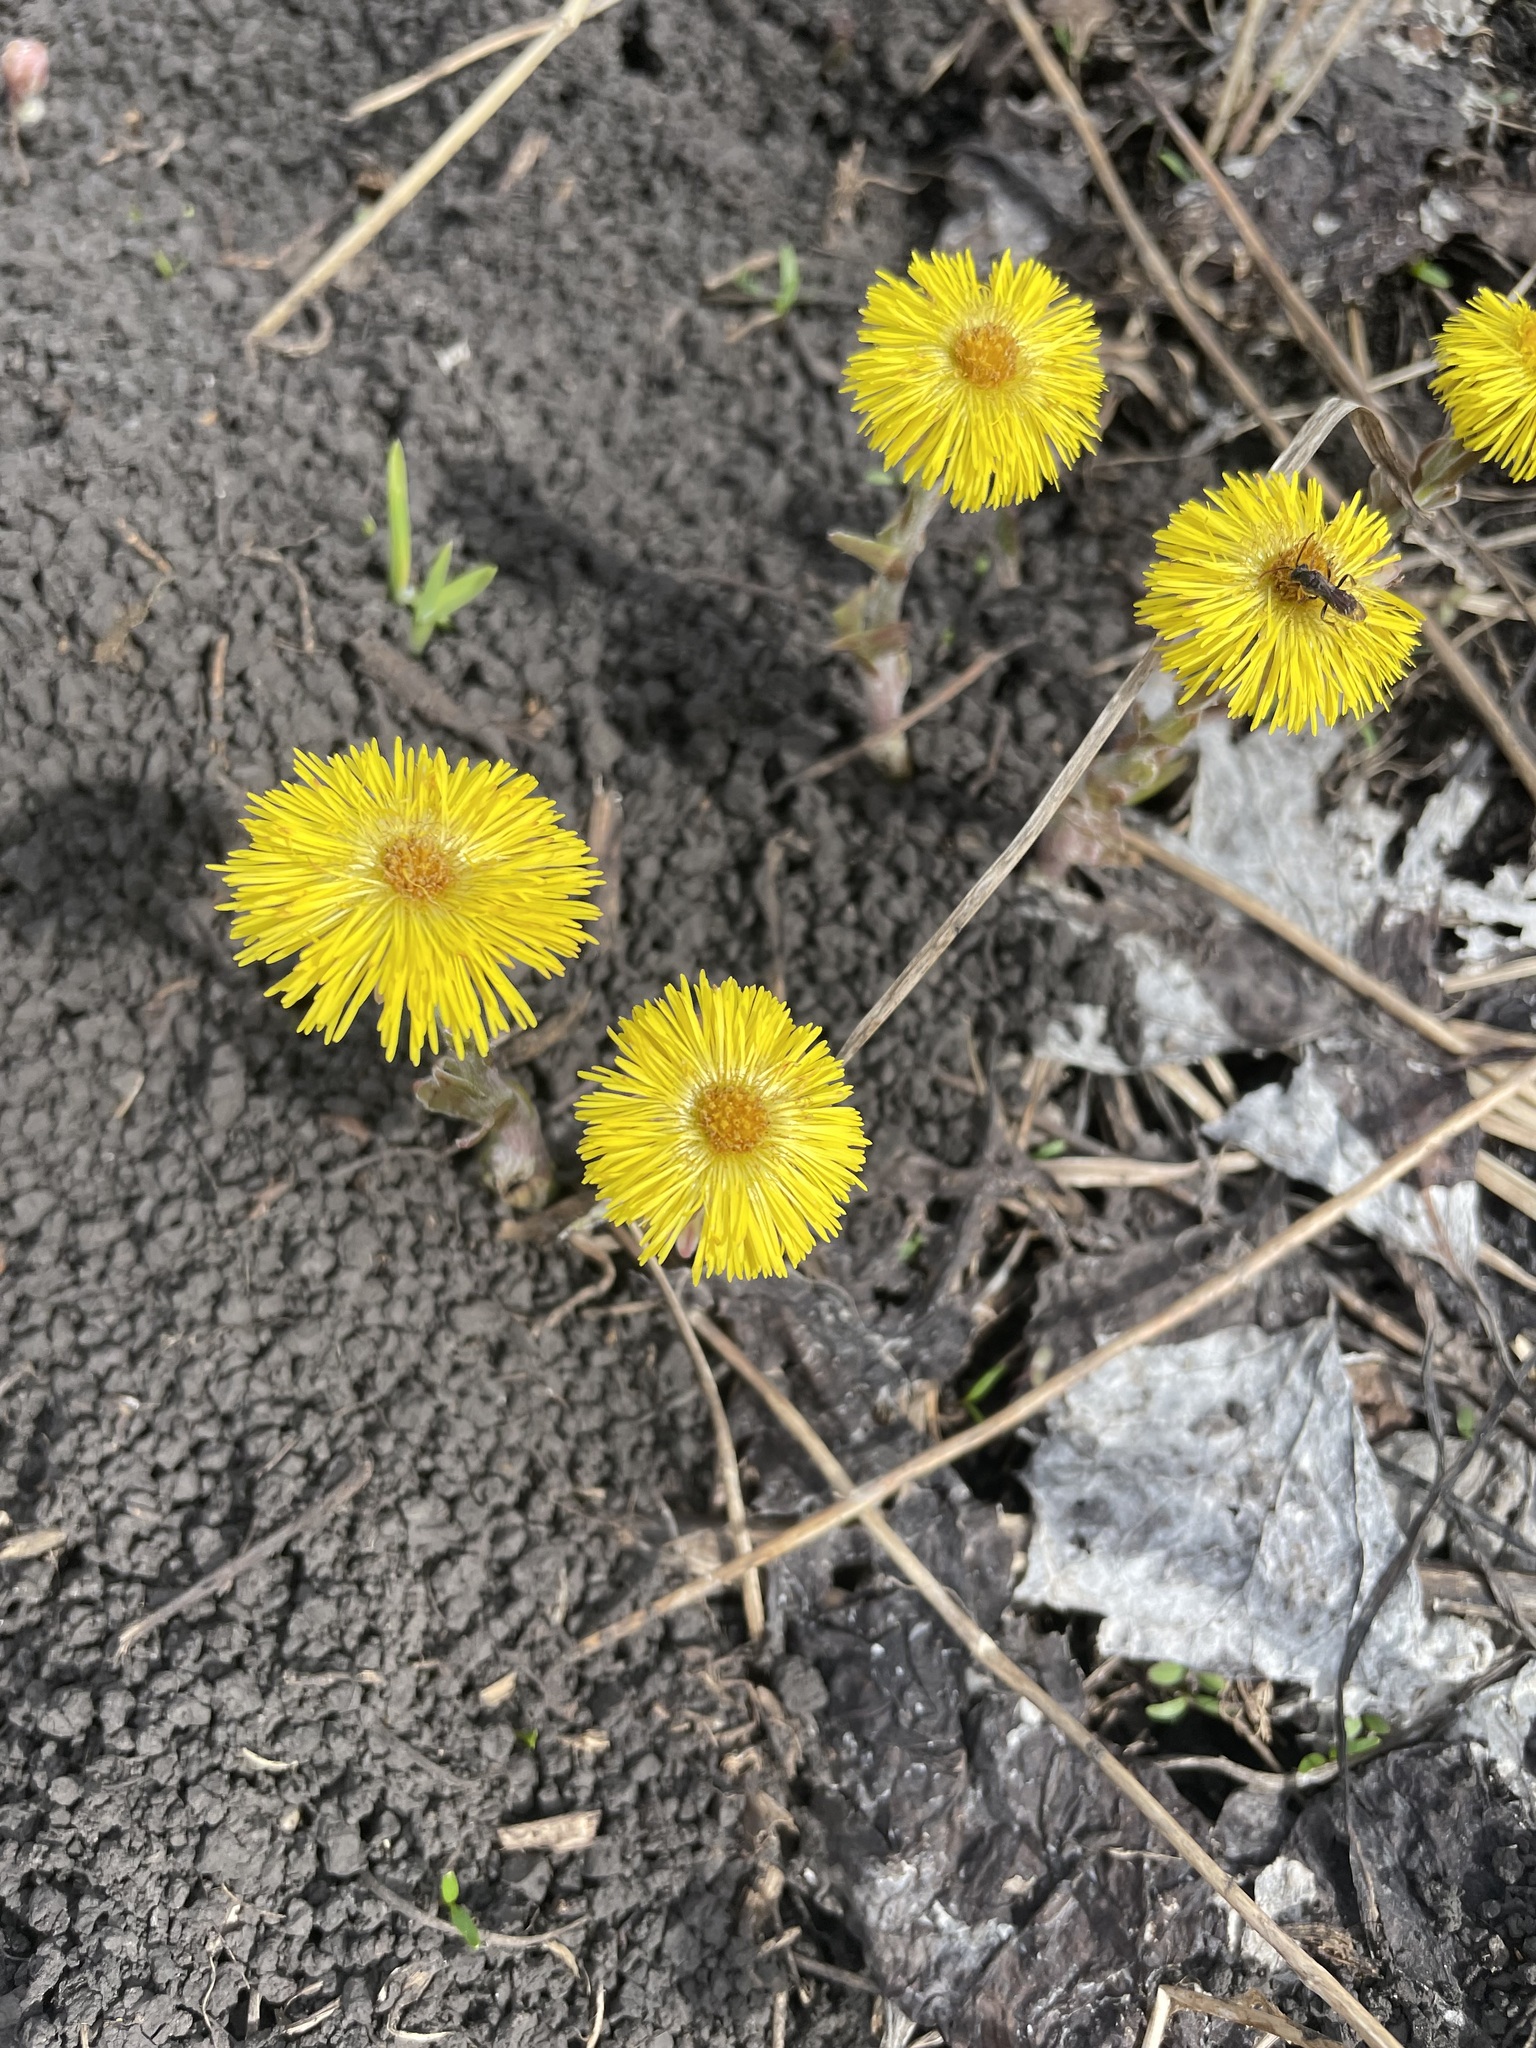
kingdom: Plantae
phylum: Tracheophyta
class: Magnoliopsida
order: Asterales
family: Asteraceae
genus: Tussilago
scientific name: Tussilago farfara
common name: Coltsfoot
